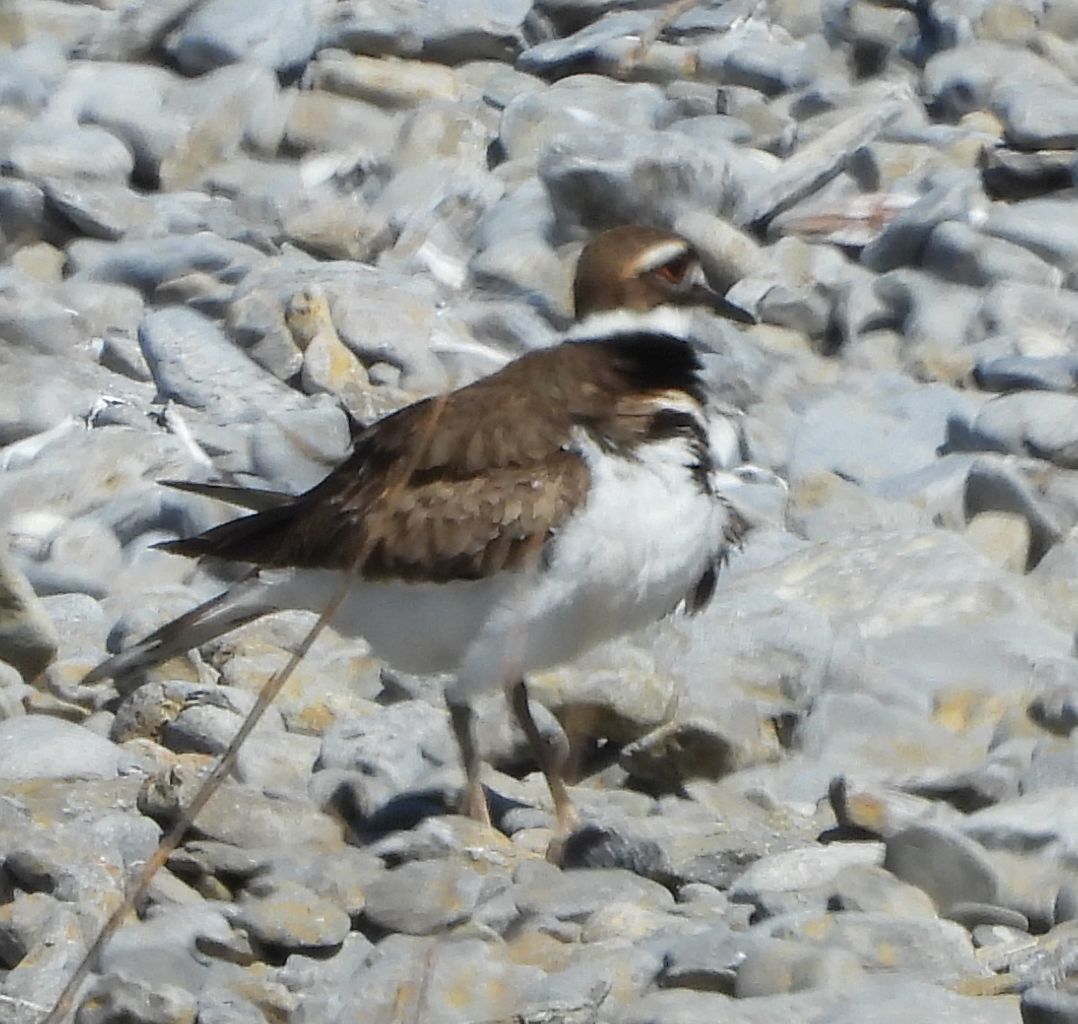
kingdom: Animalia
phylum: Chordata
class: Aves
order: Charadriiformes
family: Charadriidae
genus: Charadrius
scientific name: Charadrius vociferus
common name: Killdeer
